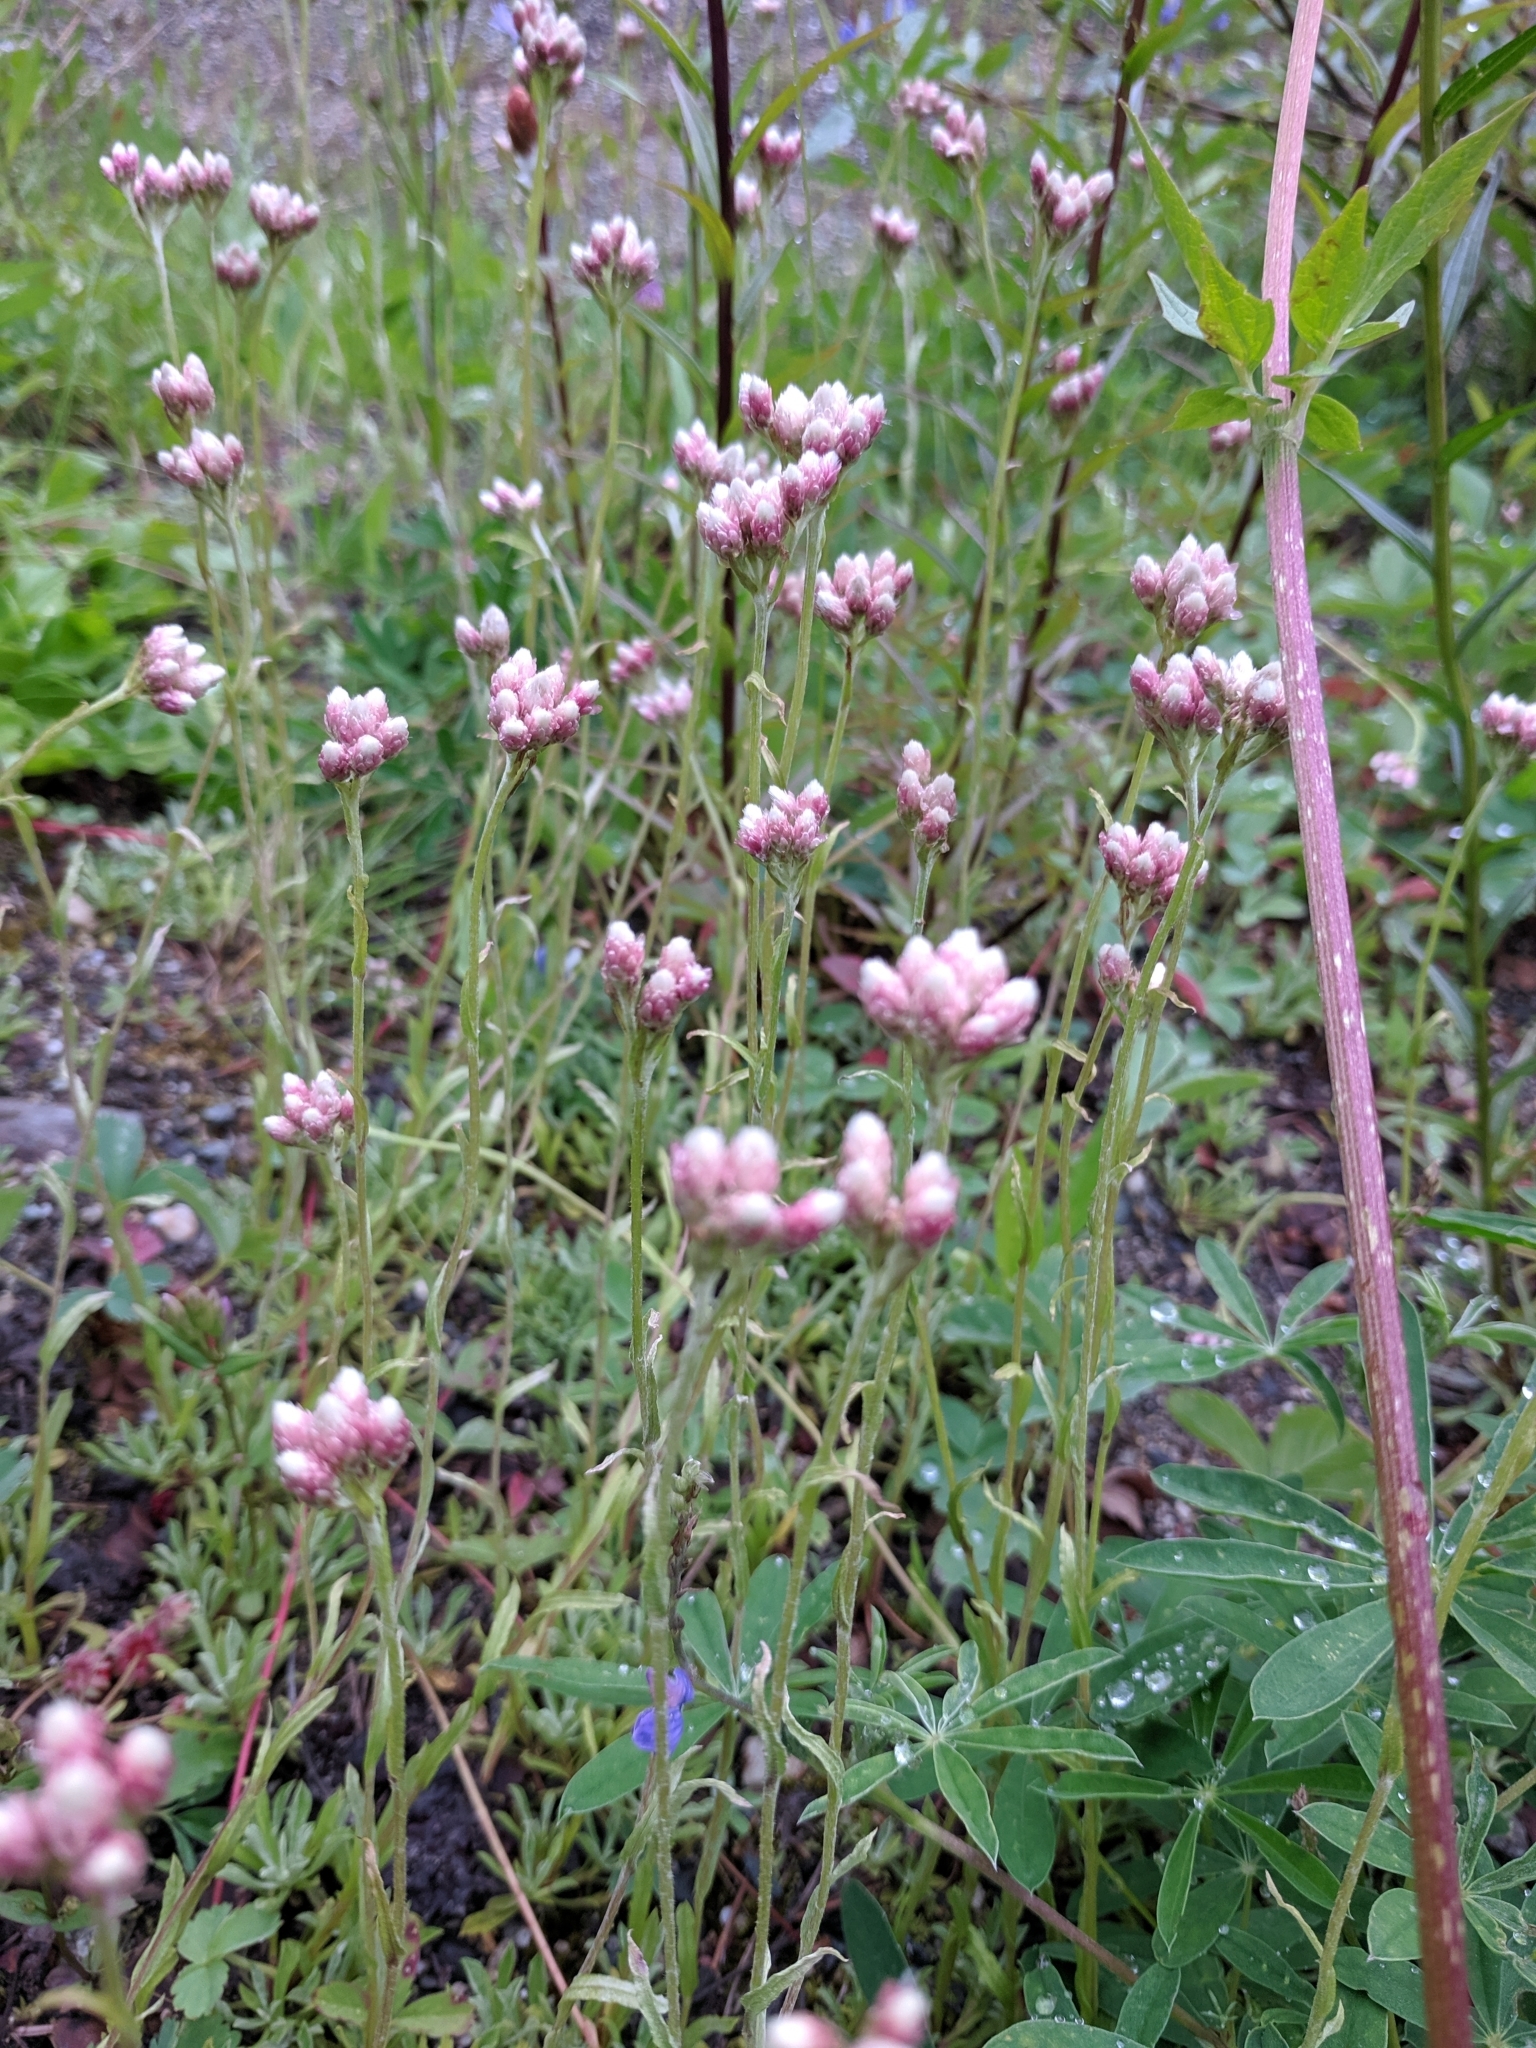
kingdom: Plantae
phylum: Tracheophyta
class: Magnoliopsida
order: Asterales
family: Asteraceae
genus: Antennaria
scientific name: Antennaria rosea
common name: Rosy pussytoes
